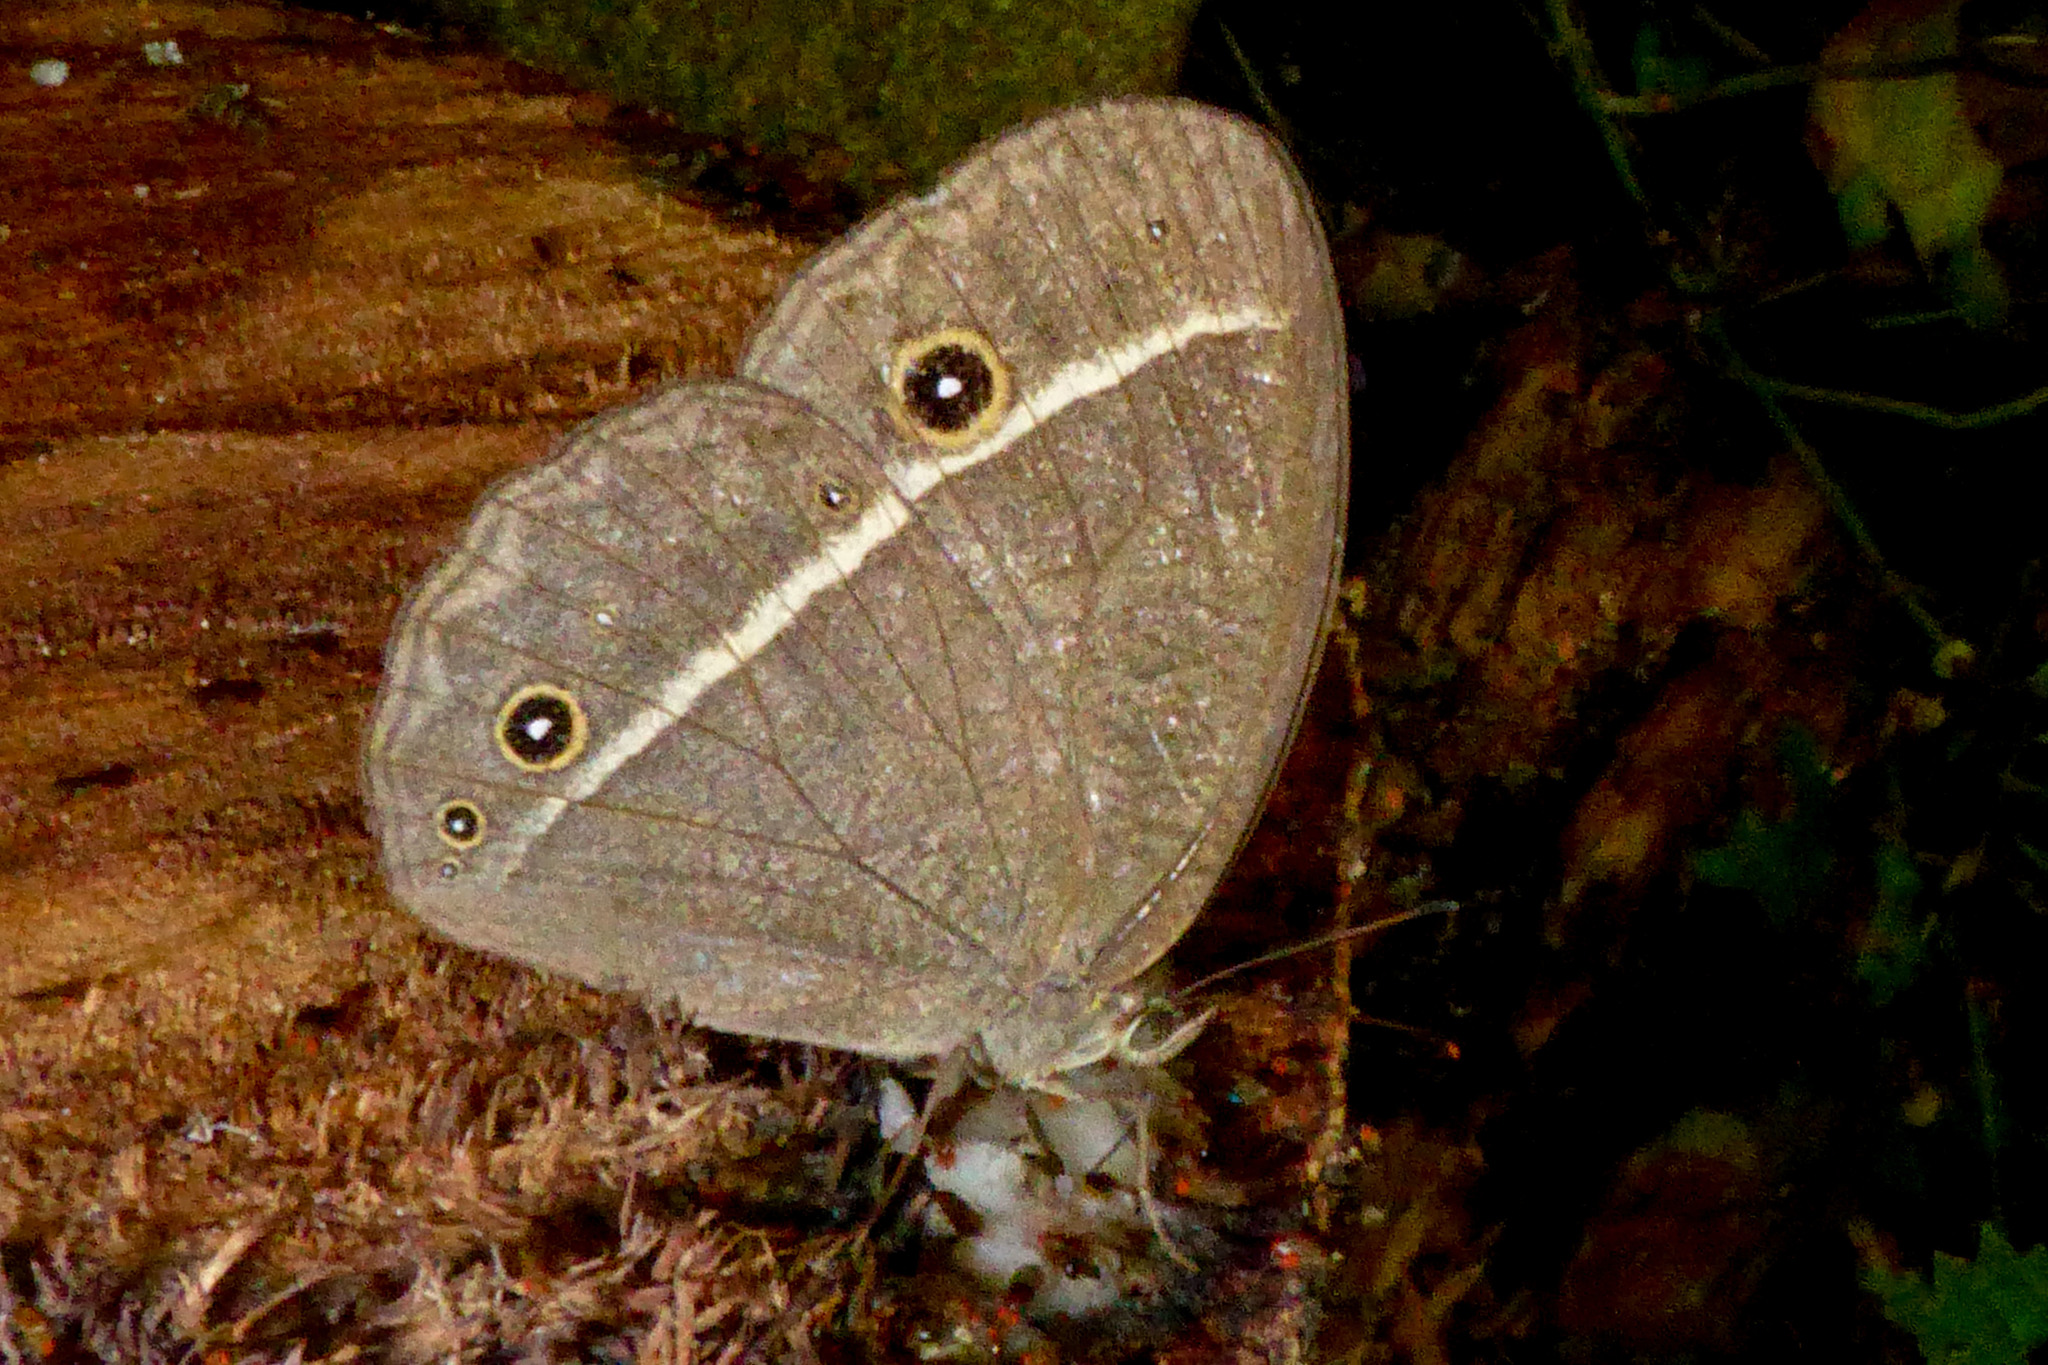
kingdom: Animalia
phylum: Arthropoda
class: Insecta
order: Lepidoptera
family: Nymphalidae
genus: Mycalesis
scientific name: Mycalesis Telinga misenus
